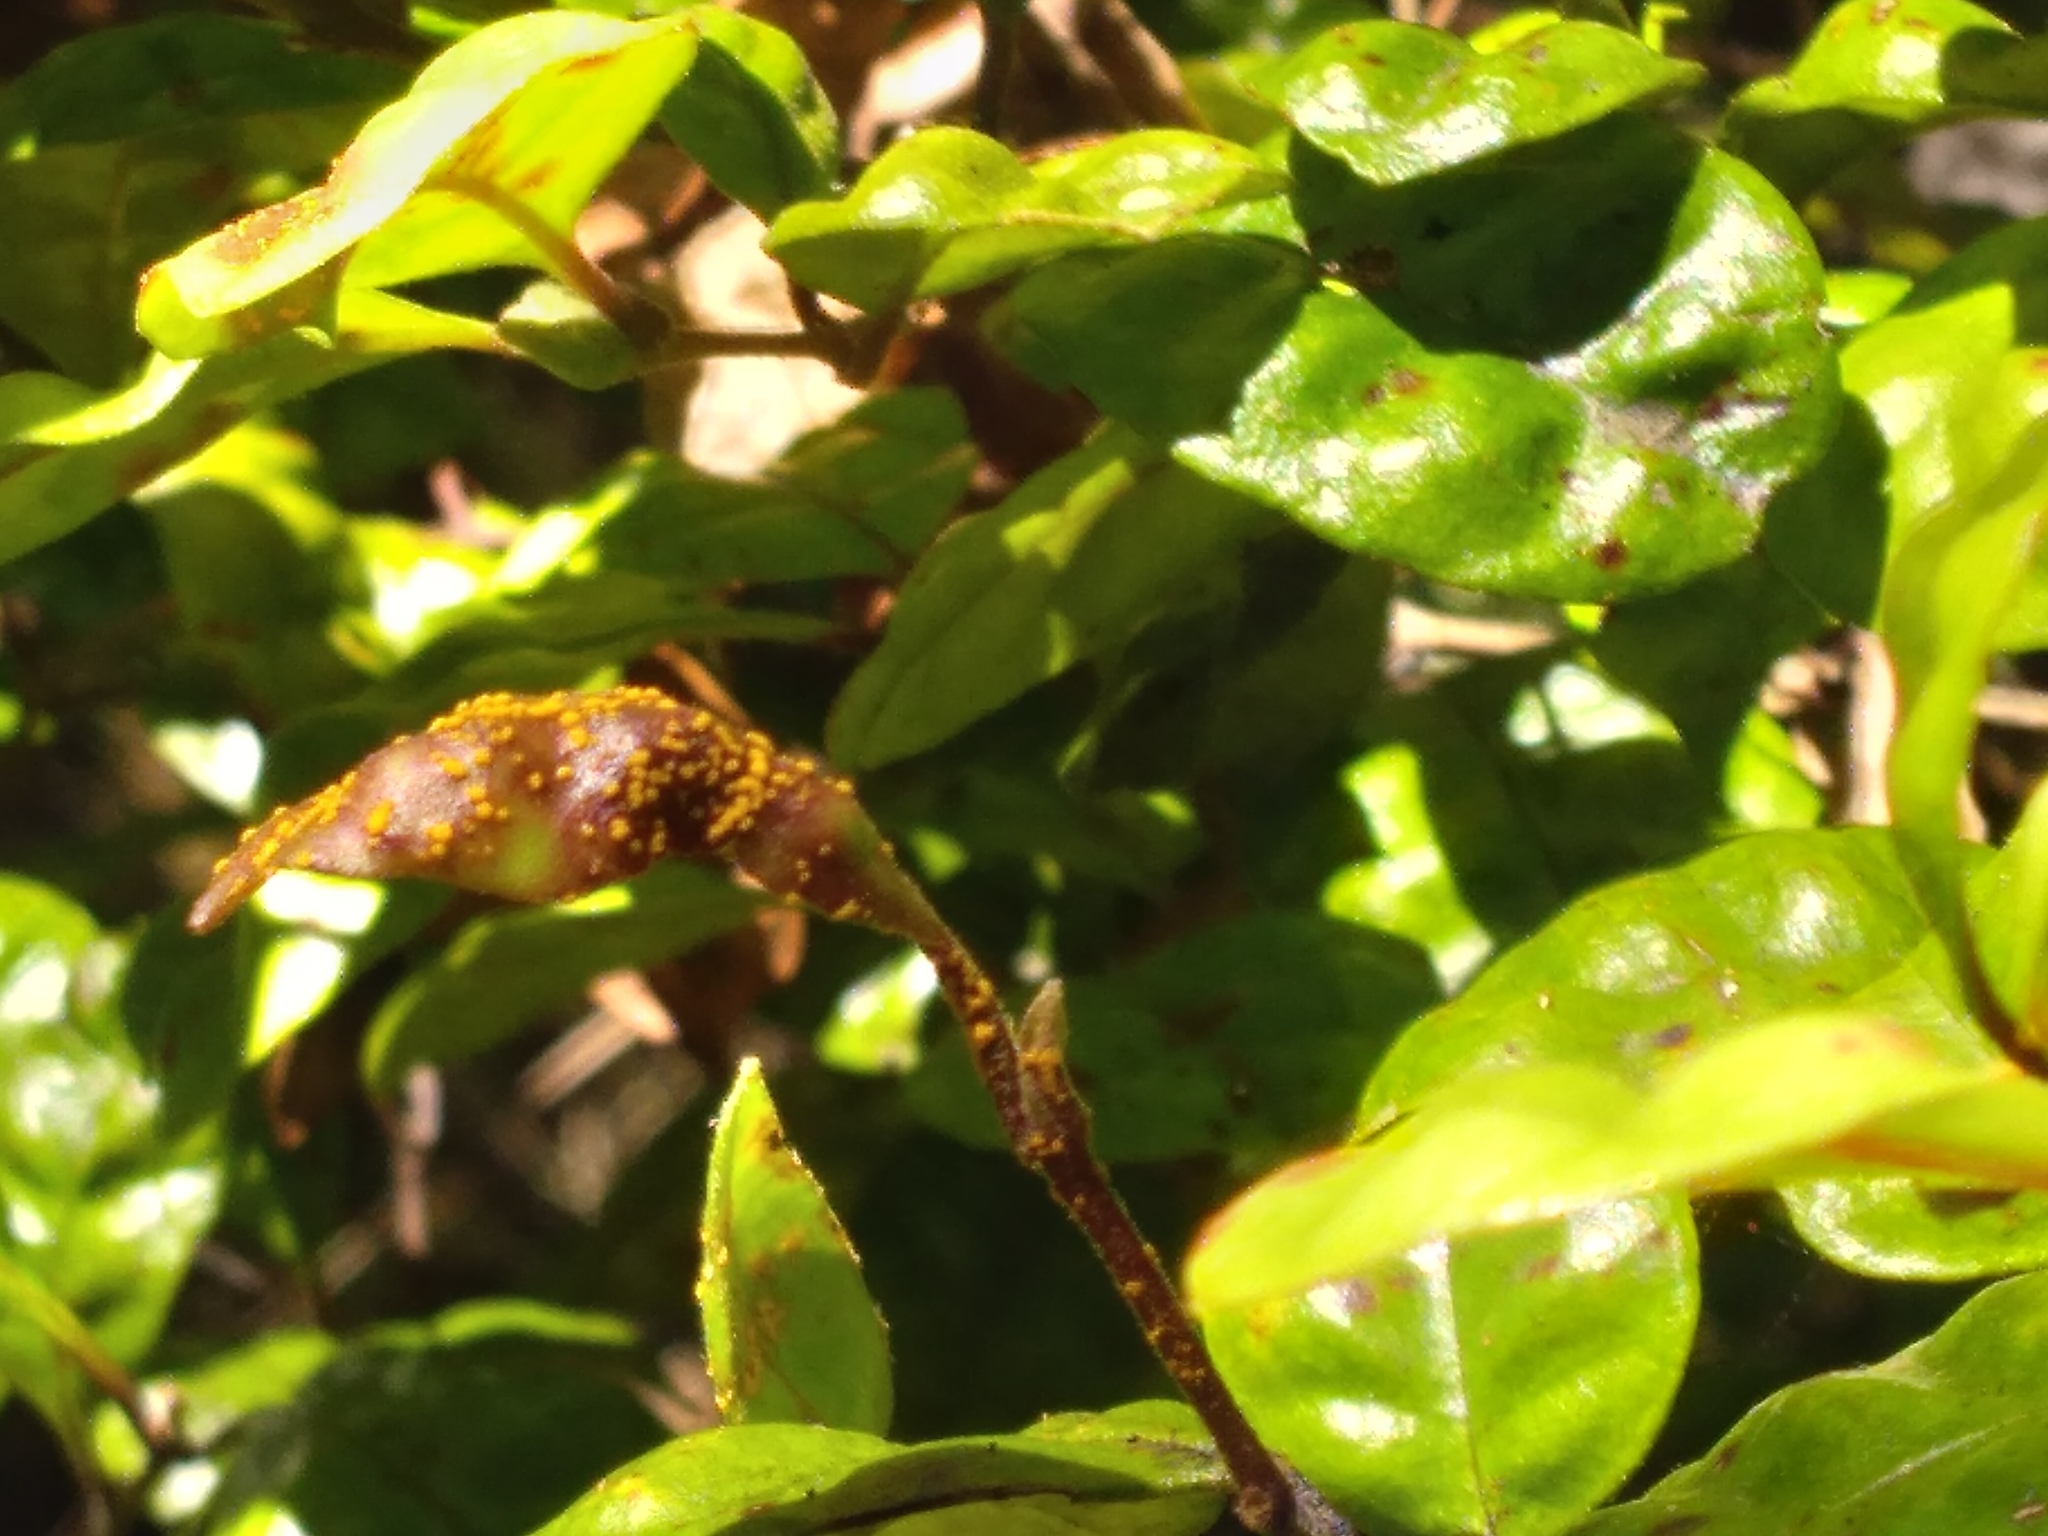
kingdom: Fungi
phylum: Basidiomycota
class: Pucciniomycetes
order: Pucciniales
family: Sphaerophragmiaceae
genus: Austropuccinia
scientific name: Austropuccinia psidii
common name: Myrtle rust
